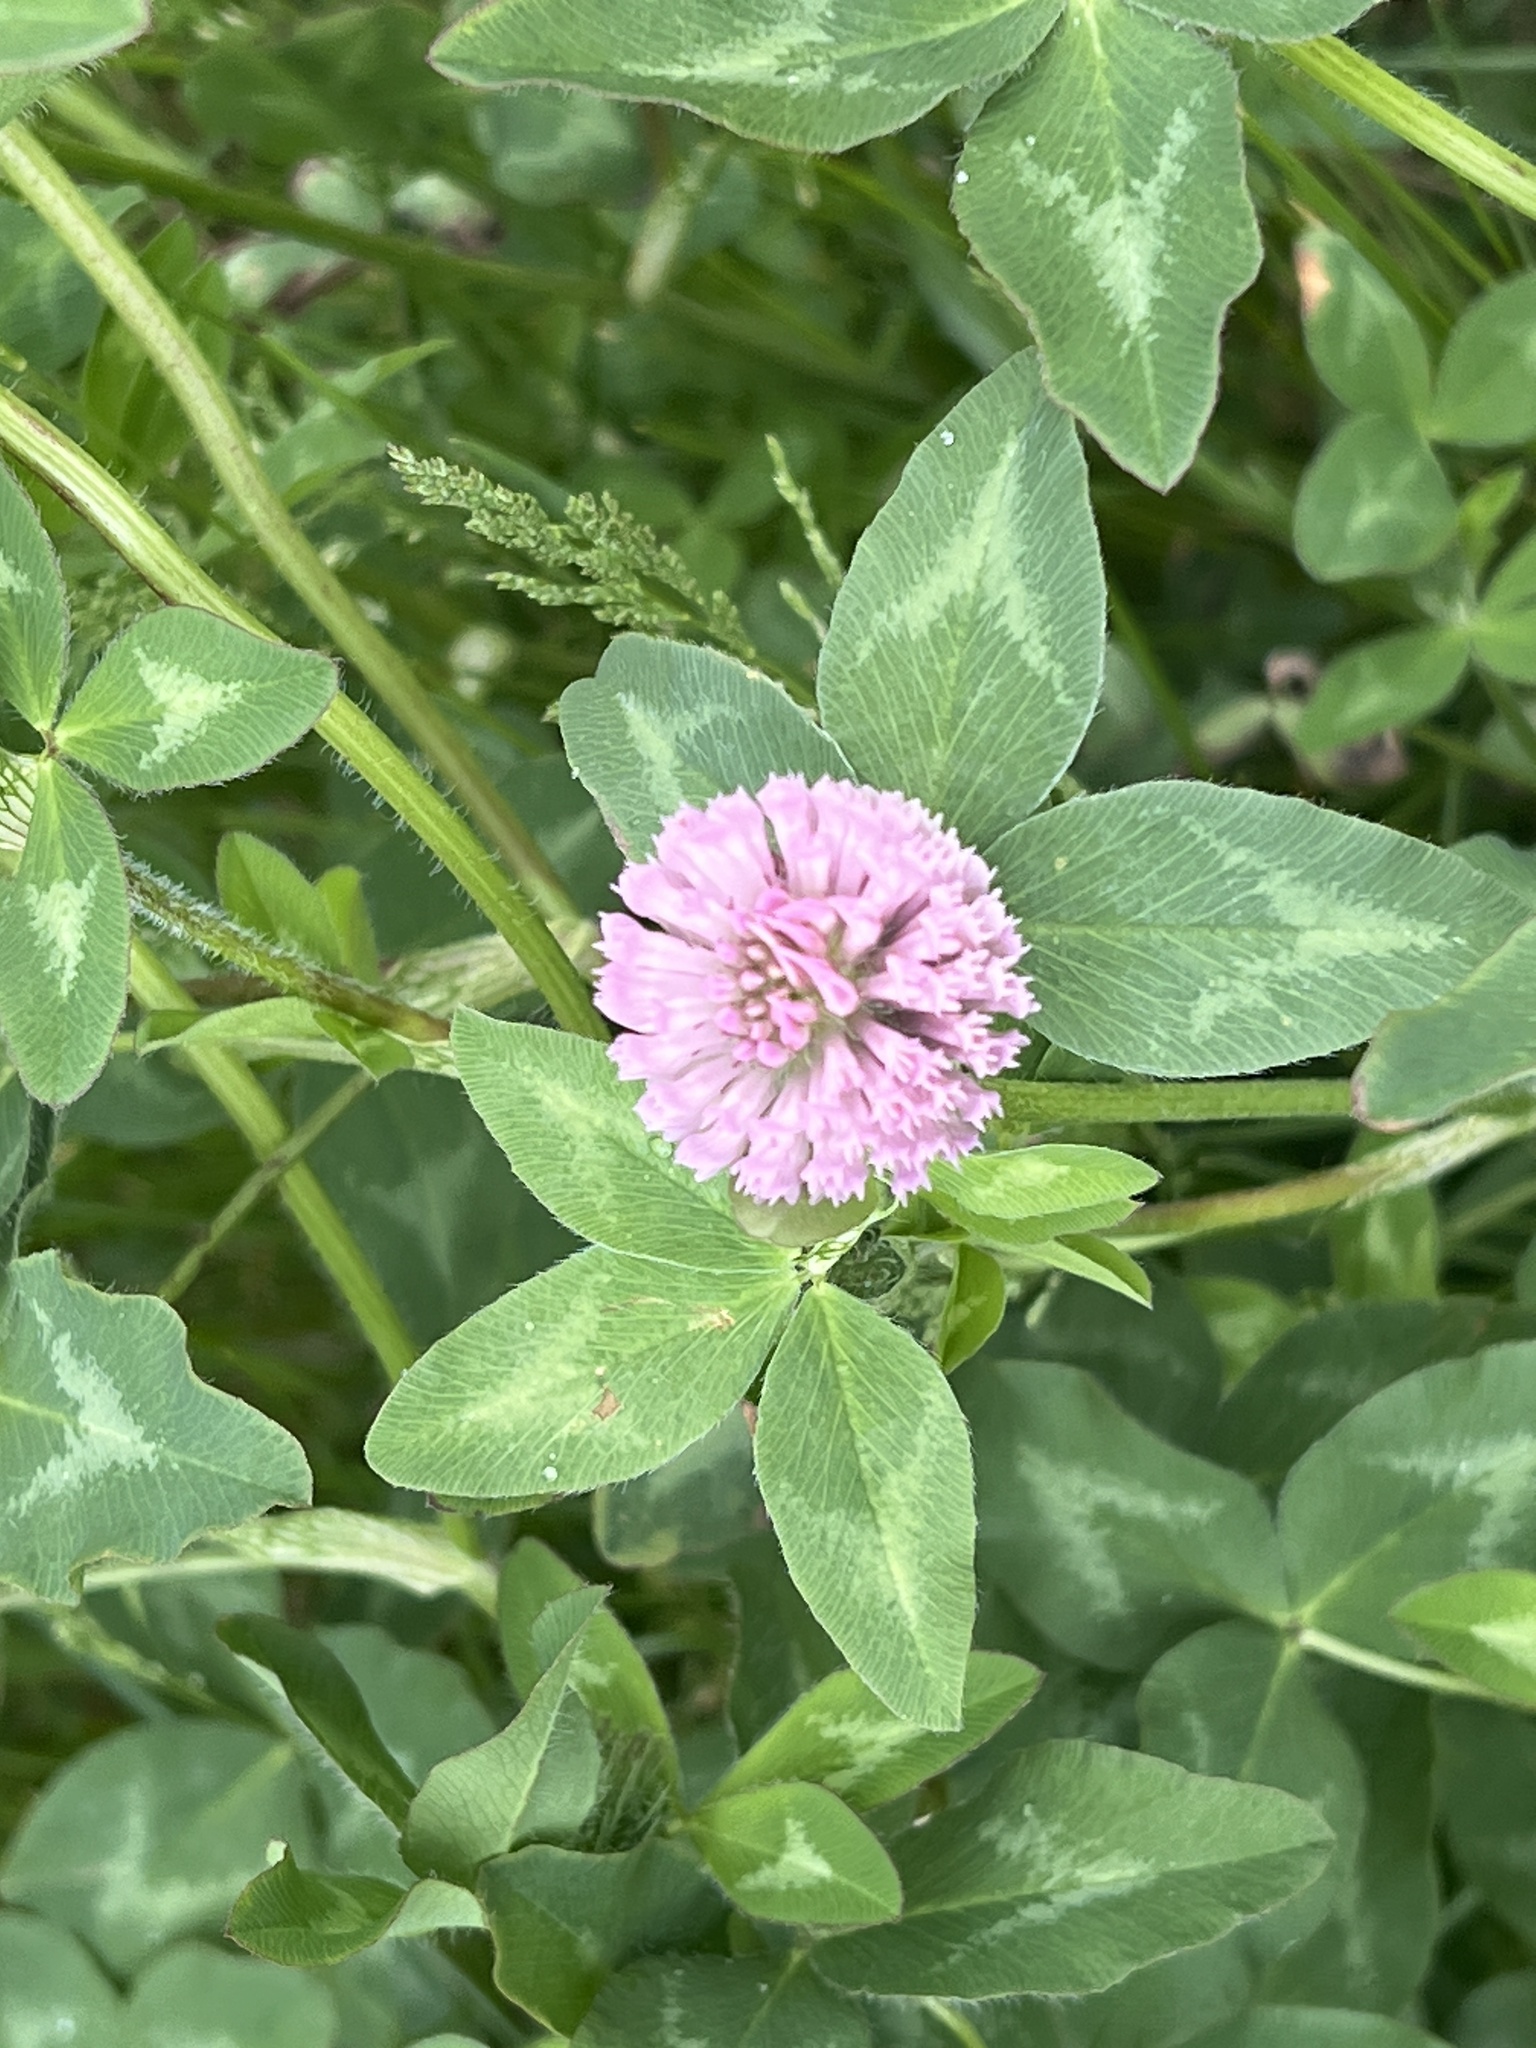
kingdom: Plantae
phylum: Tracheophyta
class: Magnoliopsida
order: Fabales
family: Fabaceae
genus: Trifolium
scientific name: Trifolium pratense
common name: Red clover
